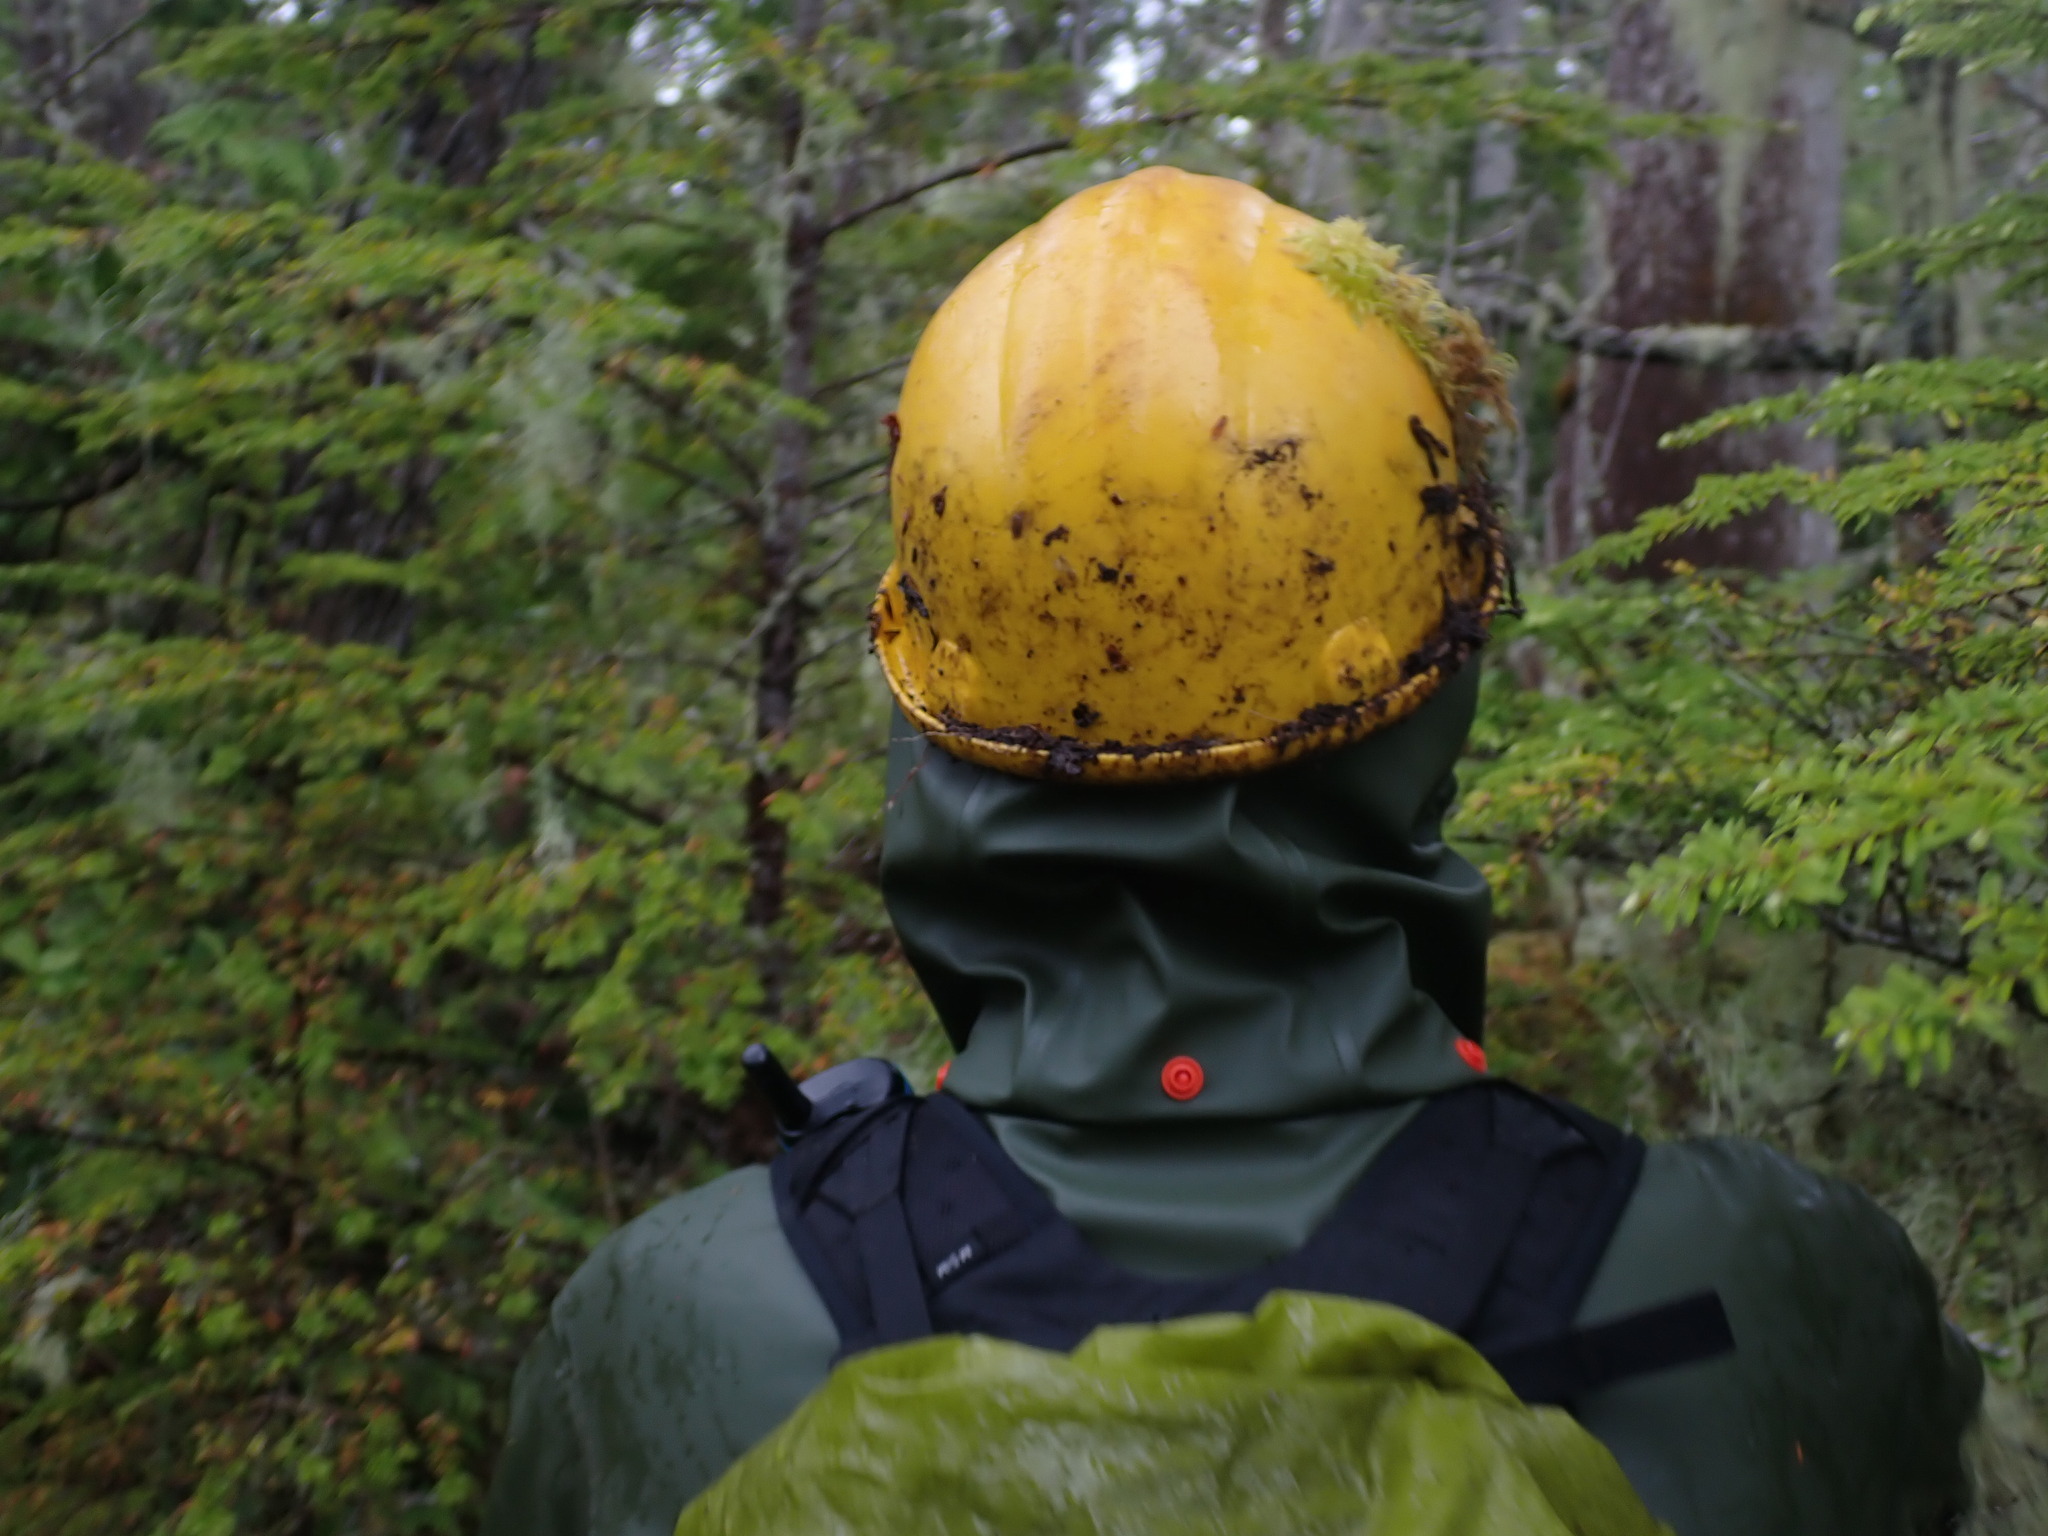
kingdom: Plantae
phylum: Bryophyta
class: Bryopsida
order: Hypnales
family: Brachytheciaceae
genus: Kindbergia
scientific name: Kindbergia oregana
